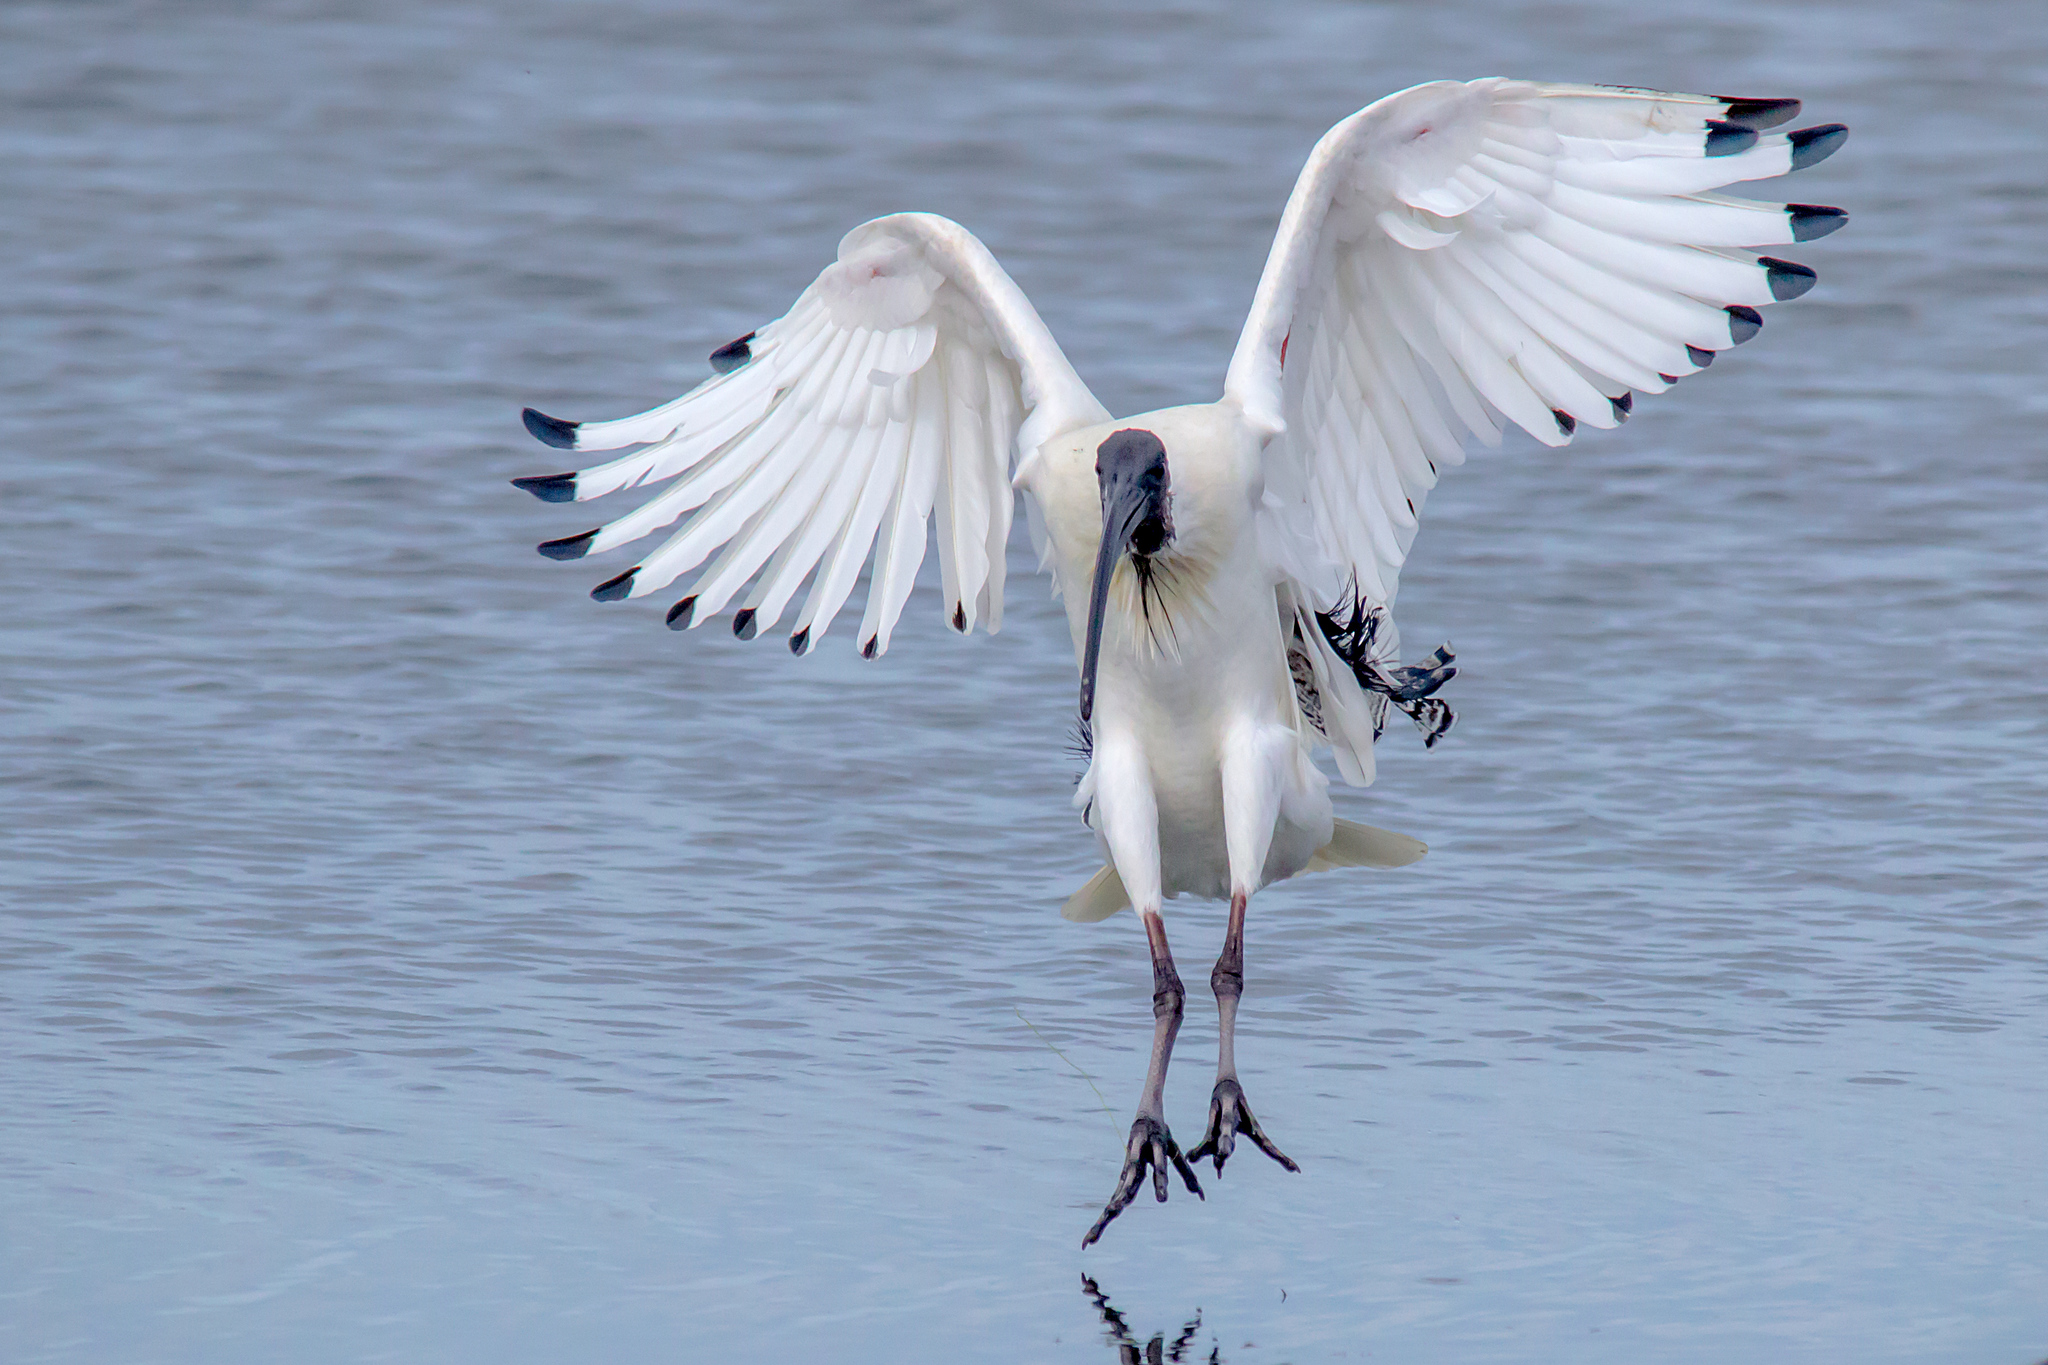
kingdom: Animalia
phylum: Chordata
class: Aves
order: Pelecaniformes
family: Threskiornithidae
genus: Threskiornis
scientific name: Threskiornis molucca
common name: Australian white ibis
